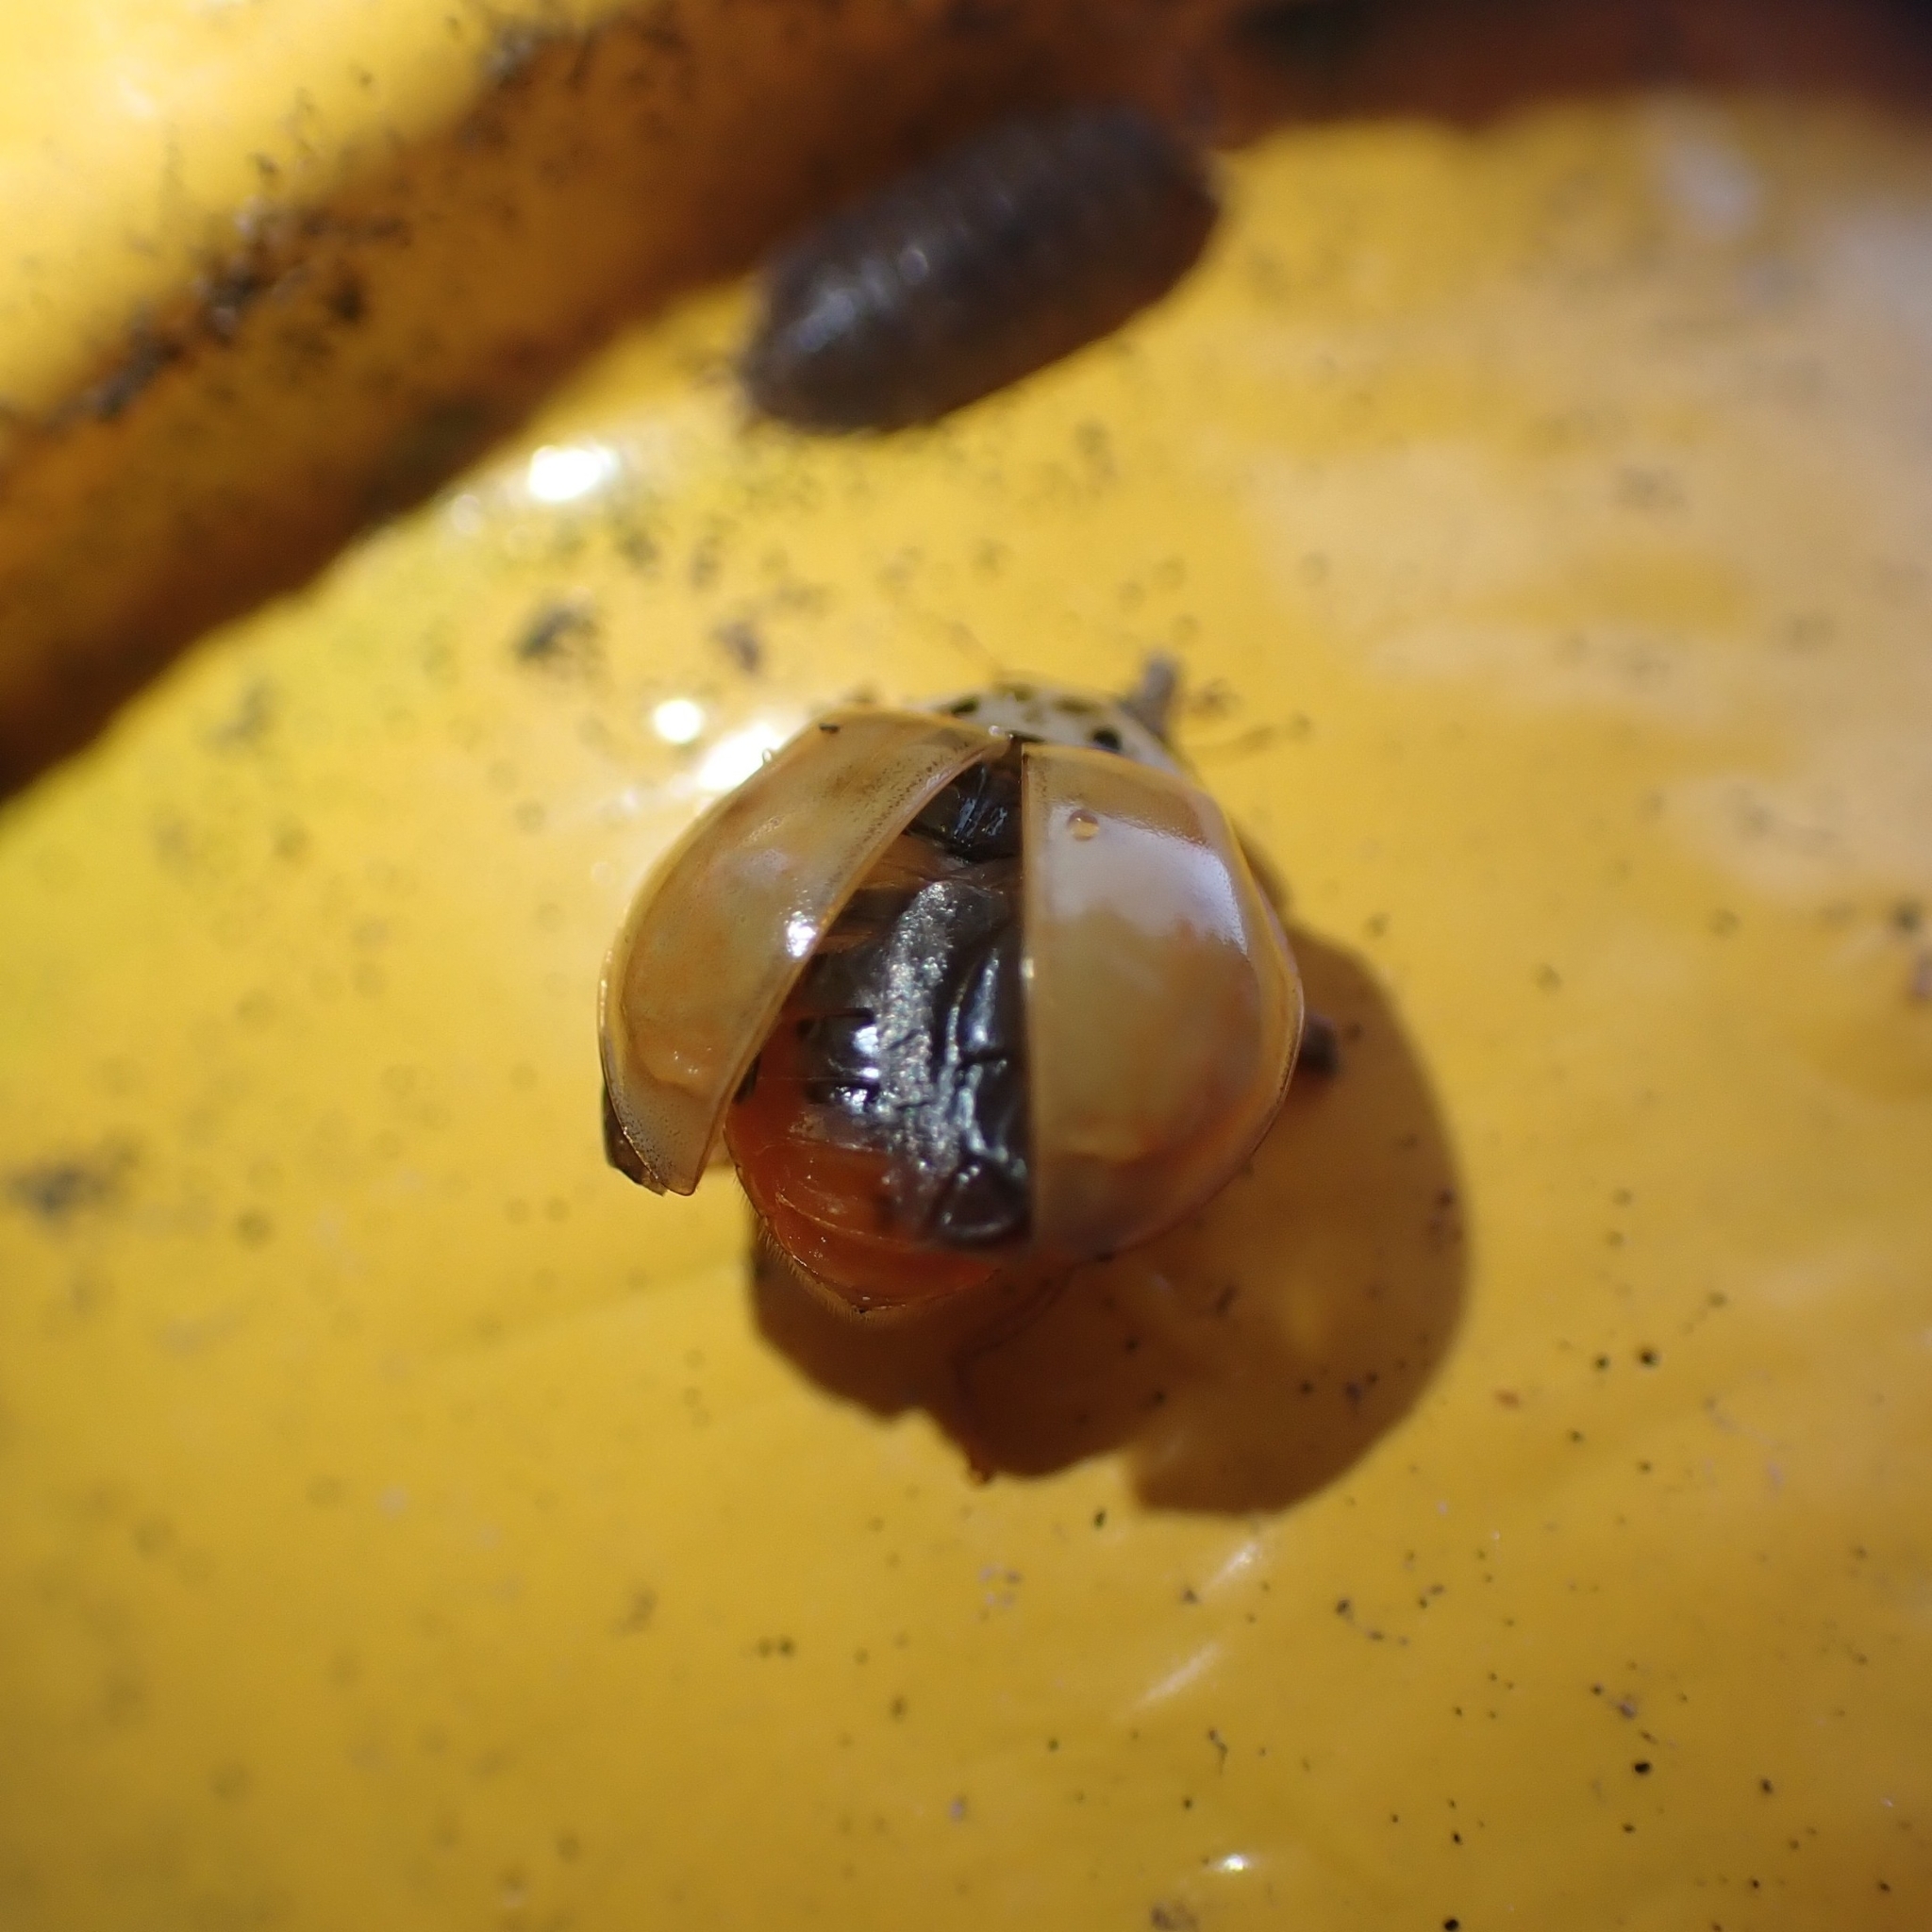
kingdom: Animalia
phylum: Arthropoda
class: Insecta
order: Coleoptera
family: Coccinellidae
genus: Harmonia
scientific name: Harmonia axyridis
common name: Harlequin ladybird
